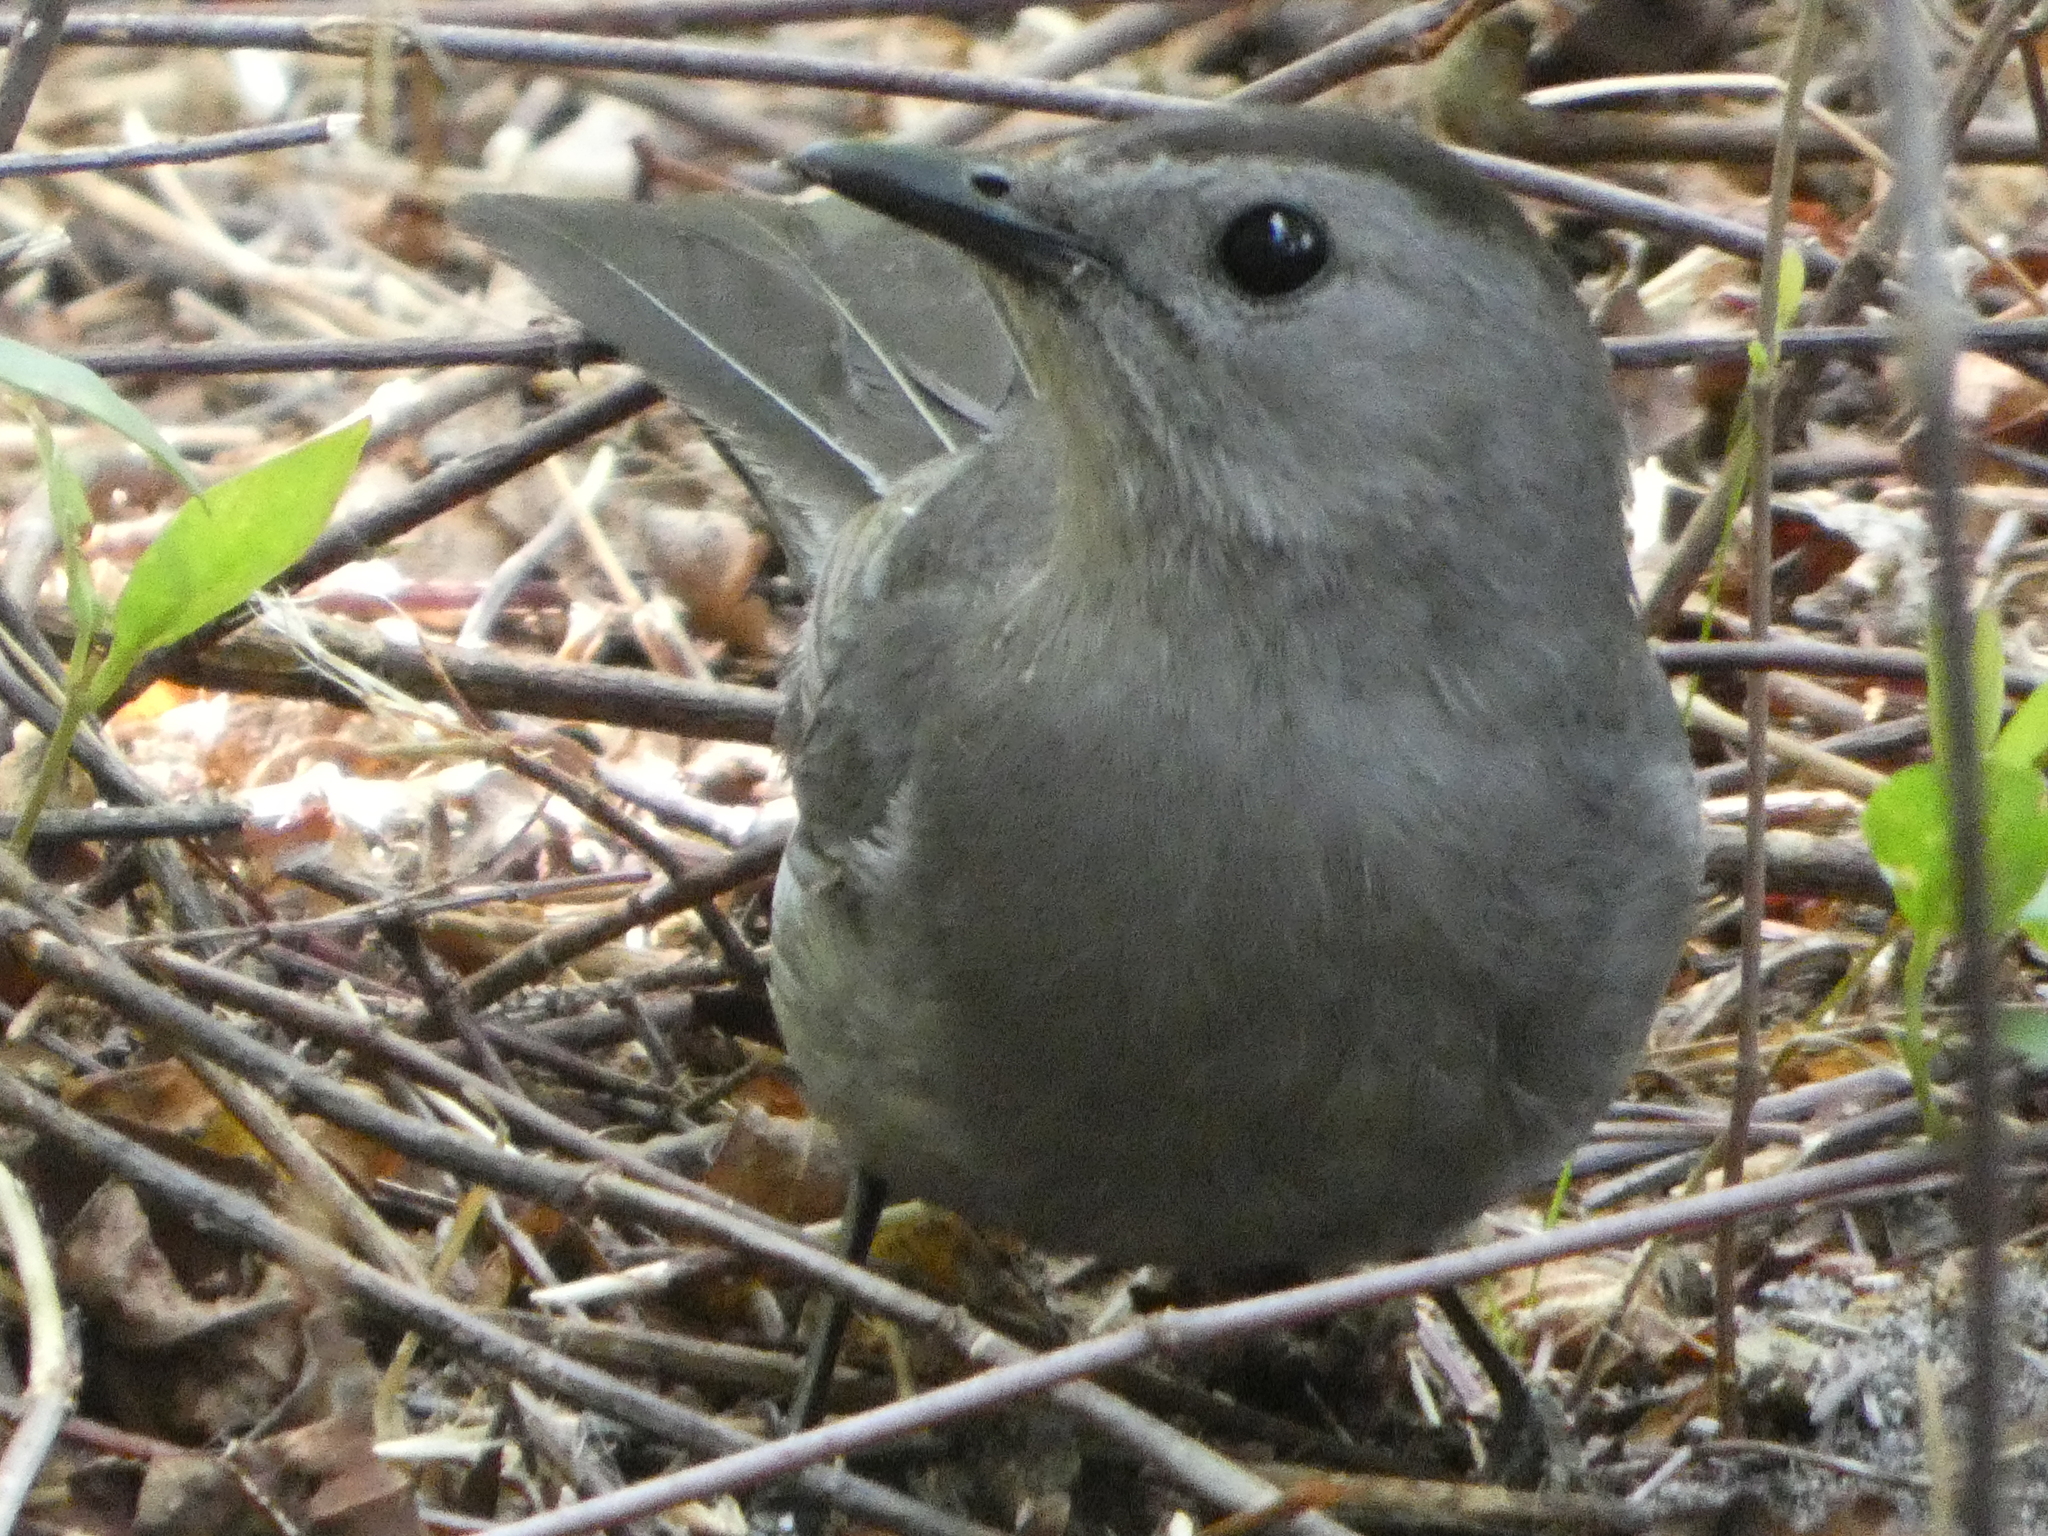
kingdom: Animalia
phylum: Chordata
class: Aves
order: Passeriformes
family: Mimidae
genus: Dumetella
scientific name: Dumetella carolinensis
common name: Gray catbird
